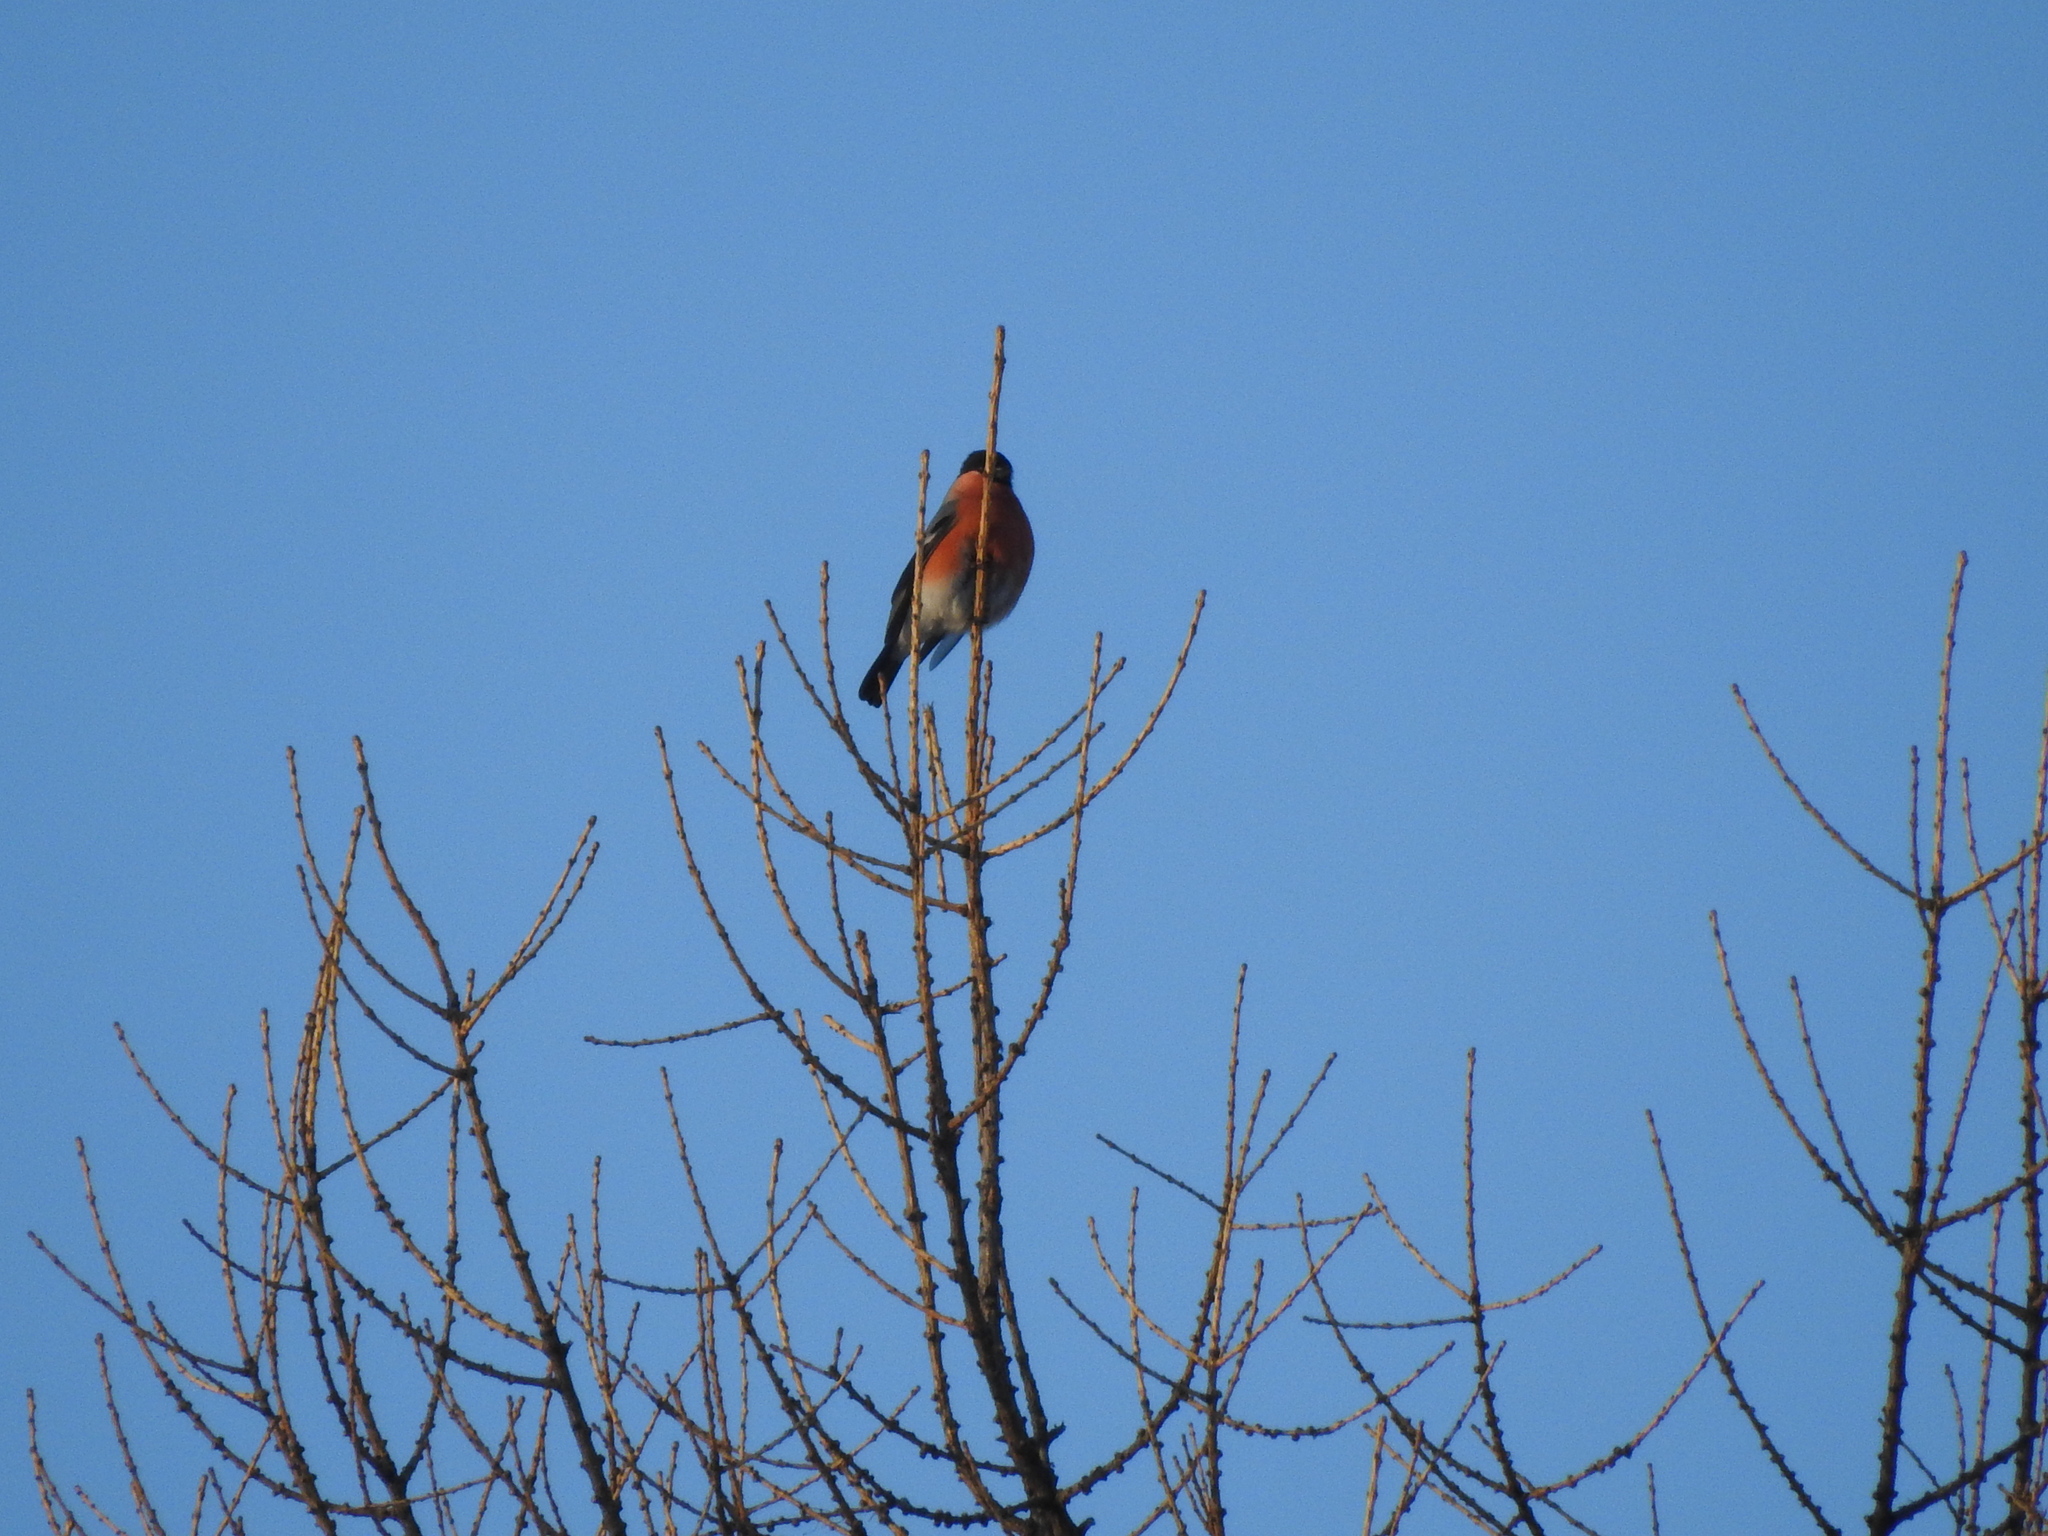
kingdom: Animalia
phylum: Chordata
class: Aves
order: Passeriformes
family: Fringillidae
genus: Pyrrhula
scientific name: Pyrrhula pyrrhula
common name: Eurasian bullfinch
